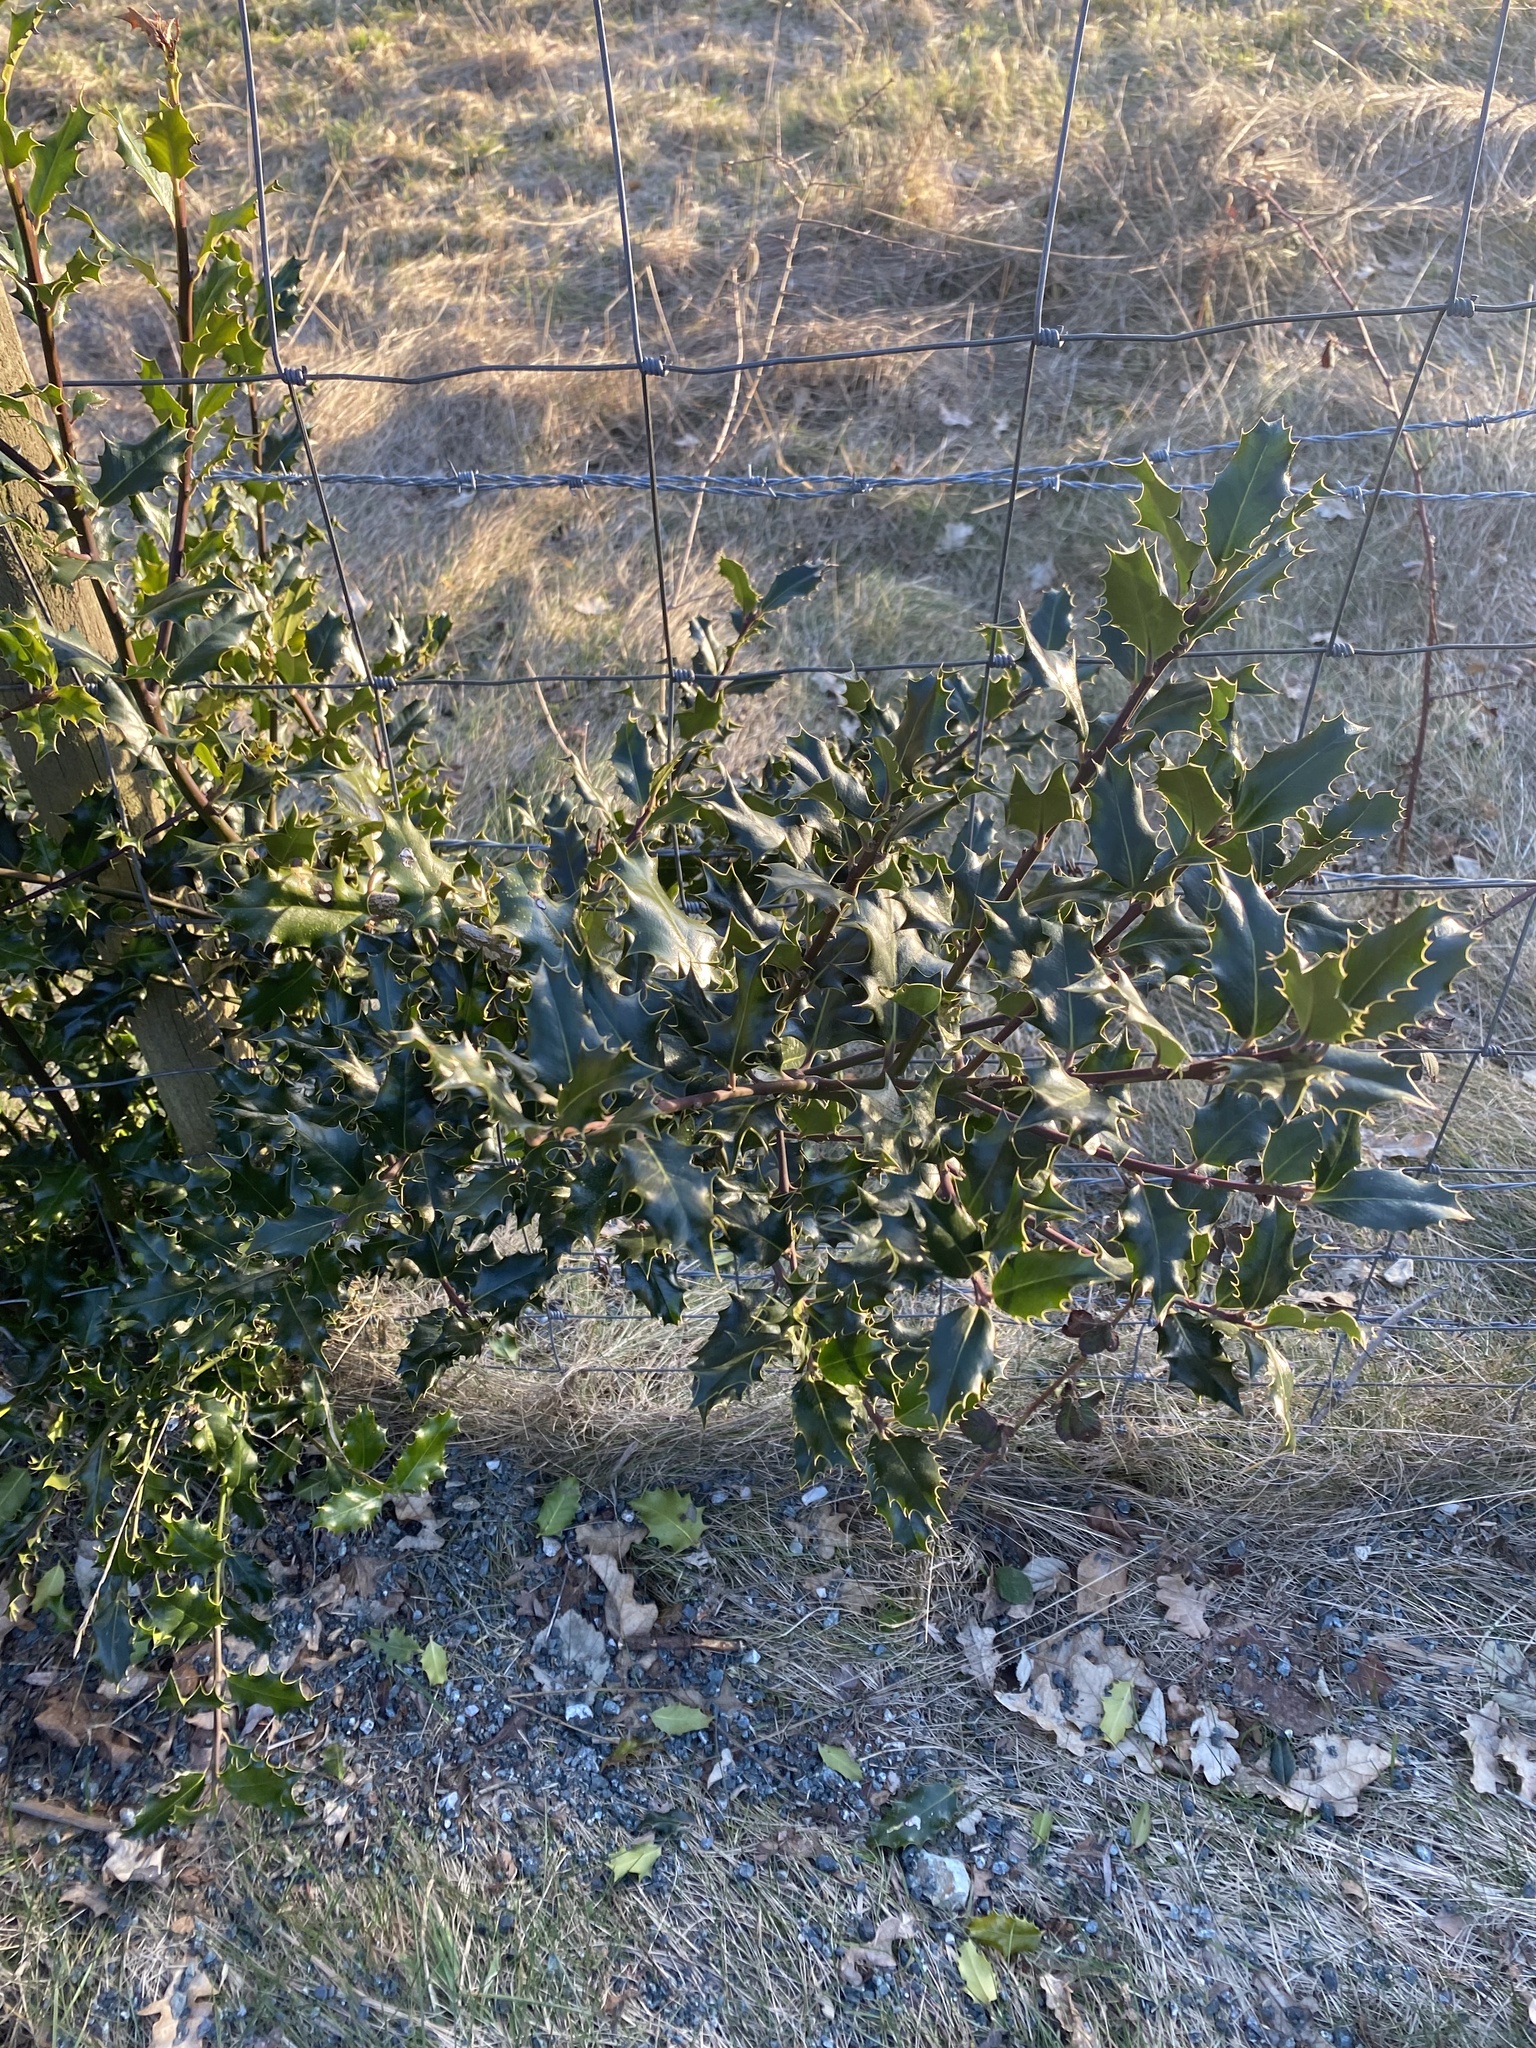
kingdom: Plantae
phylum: Tracheophyta
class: Magnoliopsida
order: Aquifoliales
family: Aquifoliaceae
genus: Ilex
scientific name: Ilex aquifolium
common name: English holly
